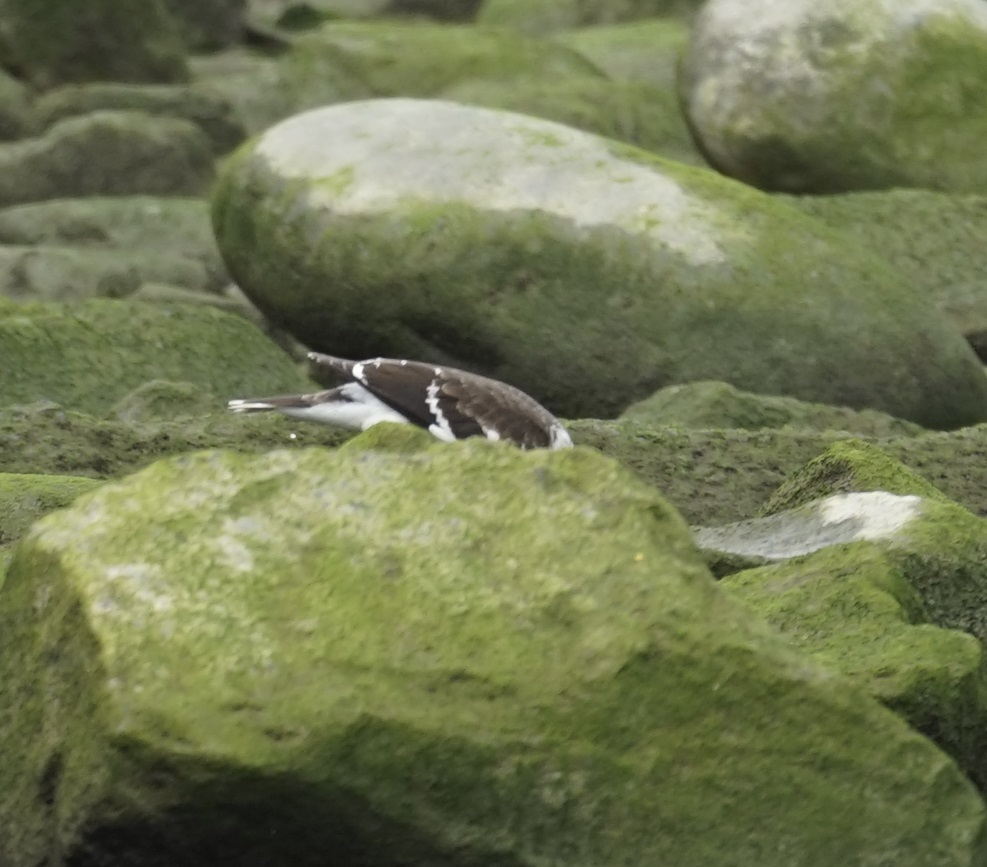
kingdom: Animalia
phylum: Chordata
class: Aves
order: Passeriformes
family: Sturnidae
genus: Gracupica
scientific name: Gracupica nigricollis
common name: Black-collared starling
